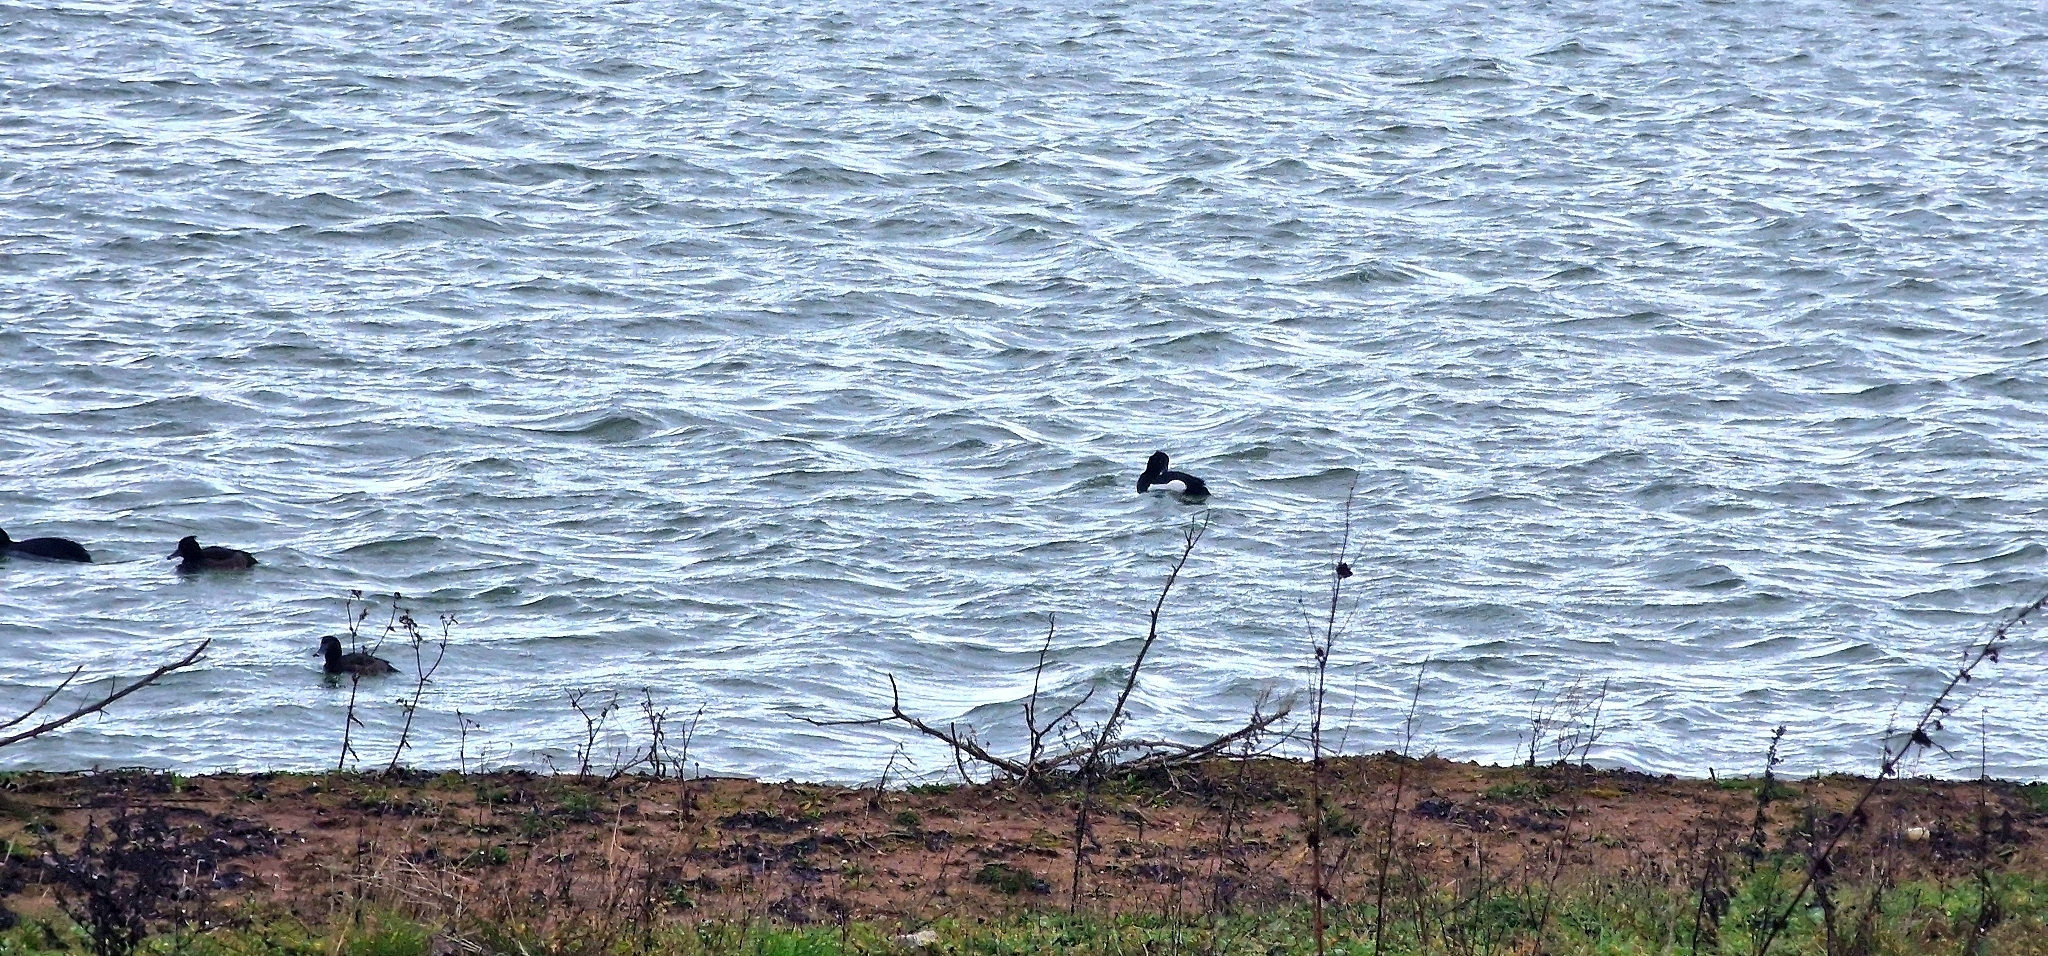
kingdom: Animalia
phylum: Chordata
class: Aves
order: Anseriformes
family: Anatidae
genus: Aythya
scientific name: Aythya fuligula
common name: Tufted duck
